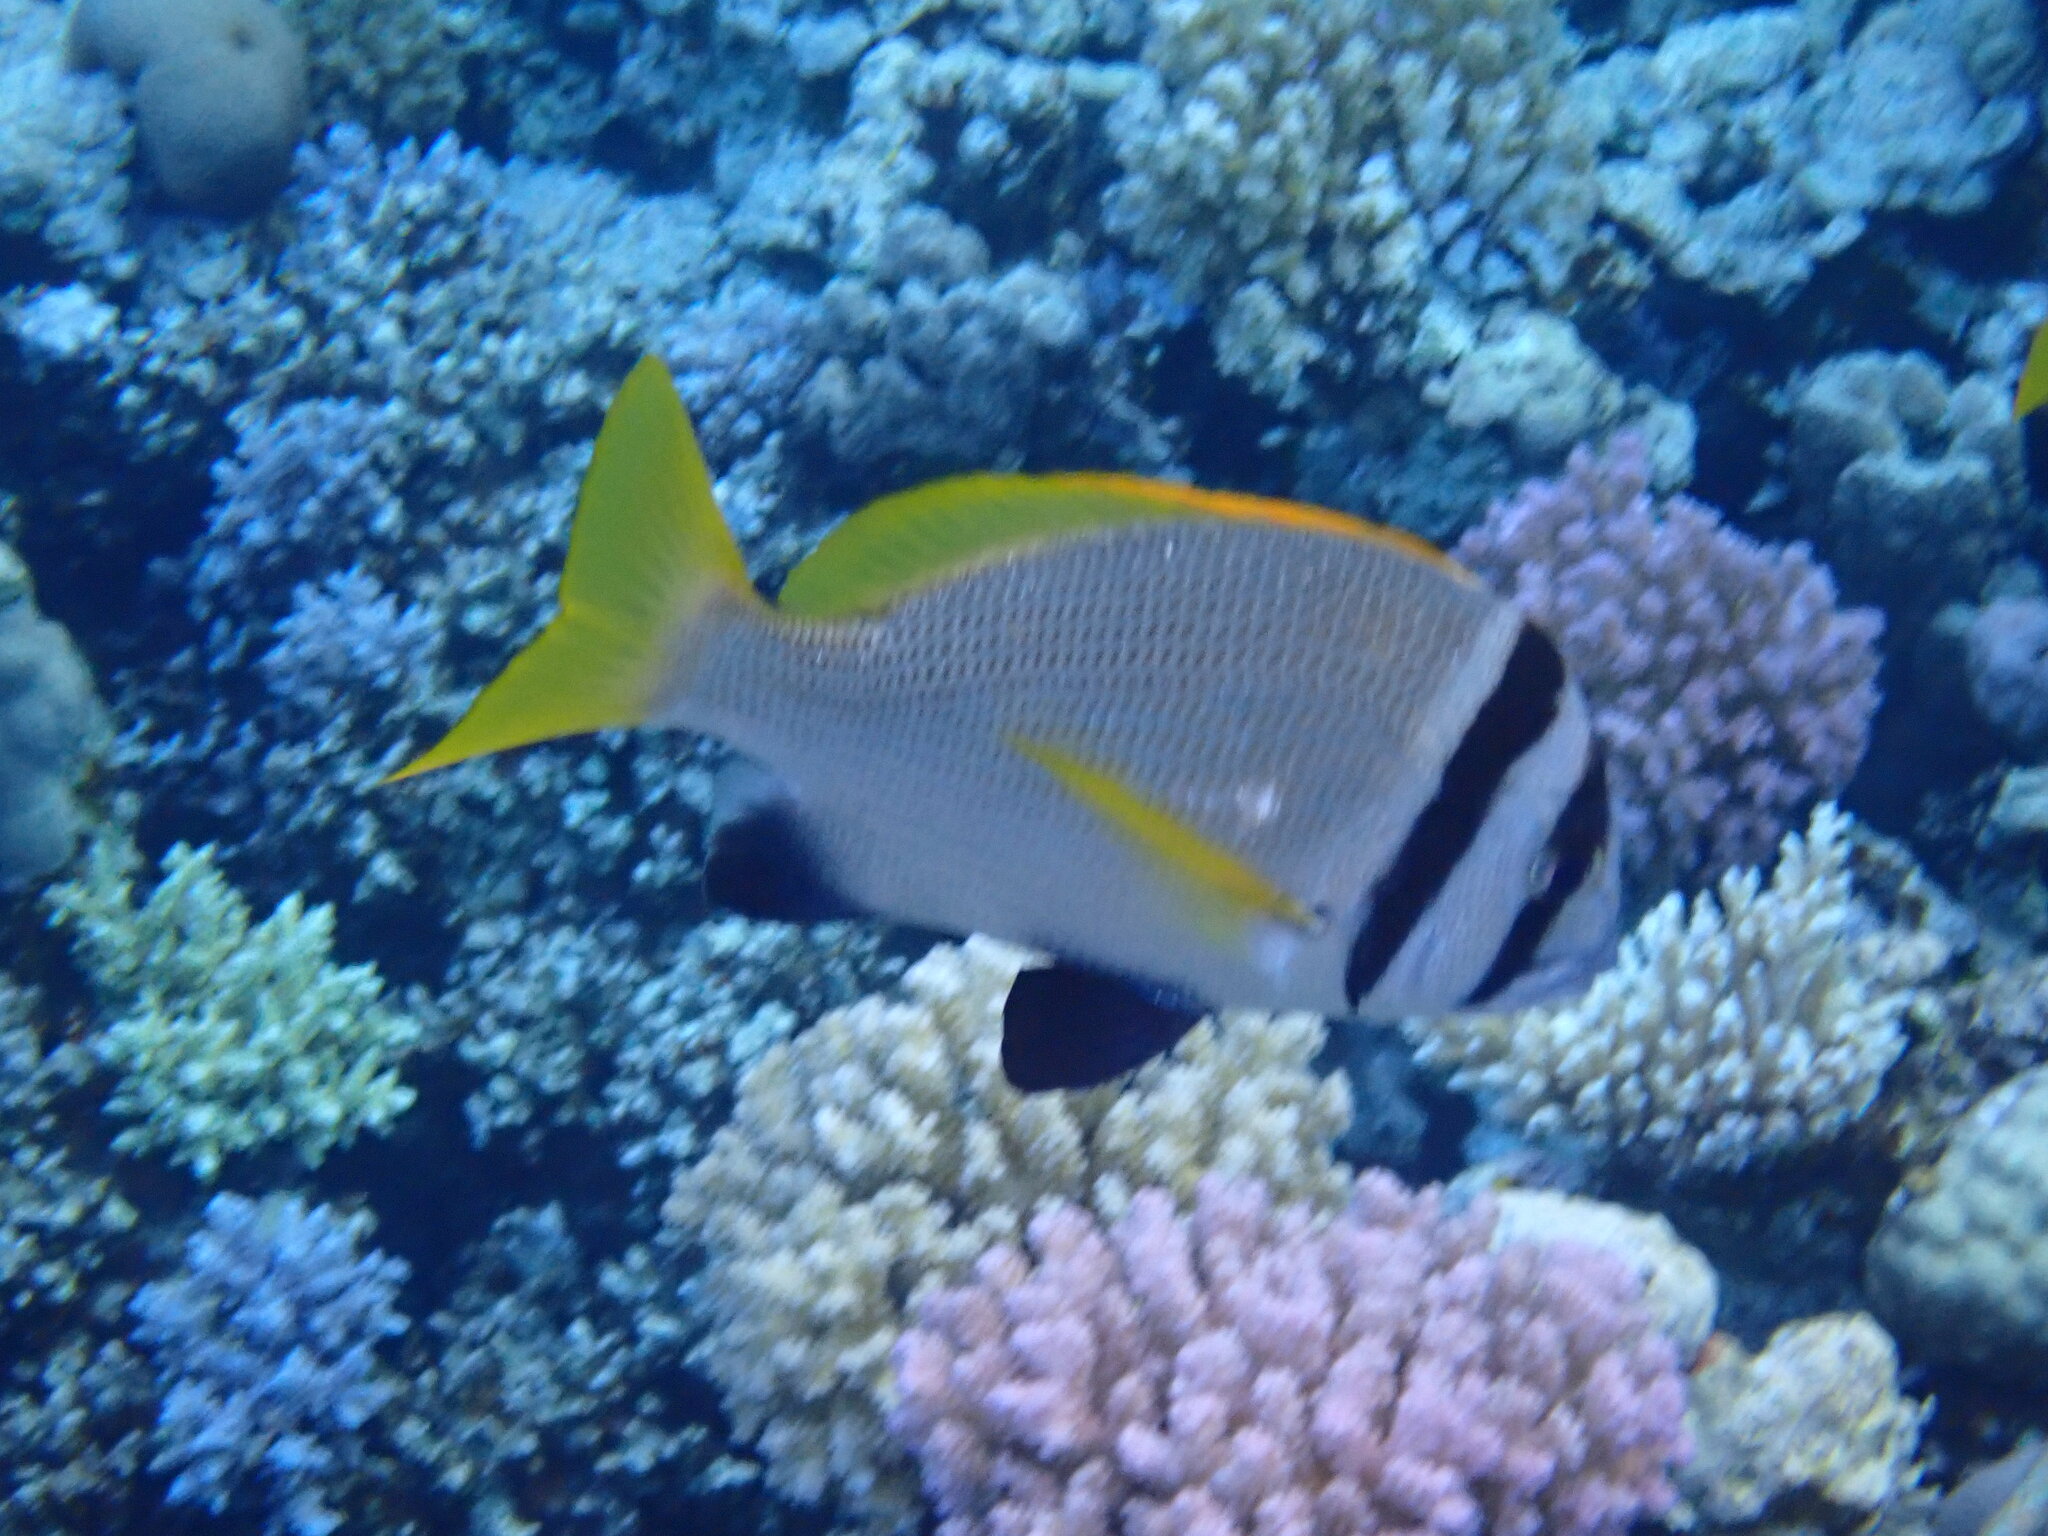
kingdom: Animalia
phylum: Chordata
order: Perciformes
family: Sparidae
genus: Acanthopagrus
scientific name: Acanthopagrus bifasciatus
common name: Twobar seabream
